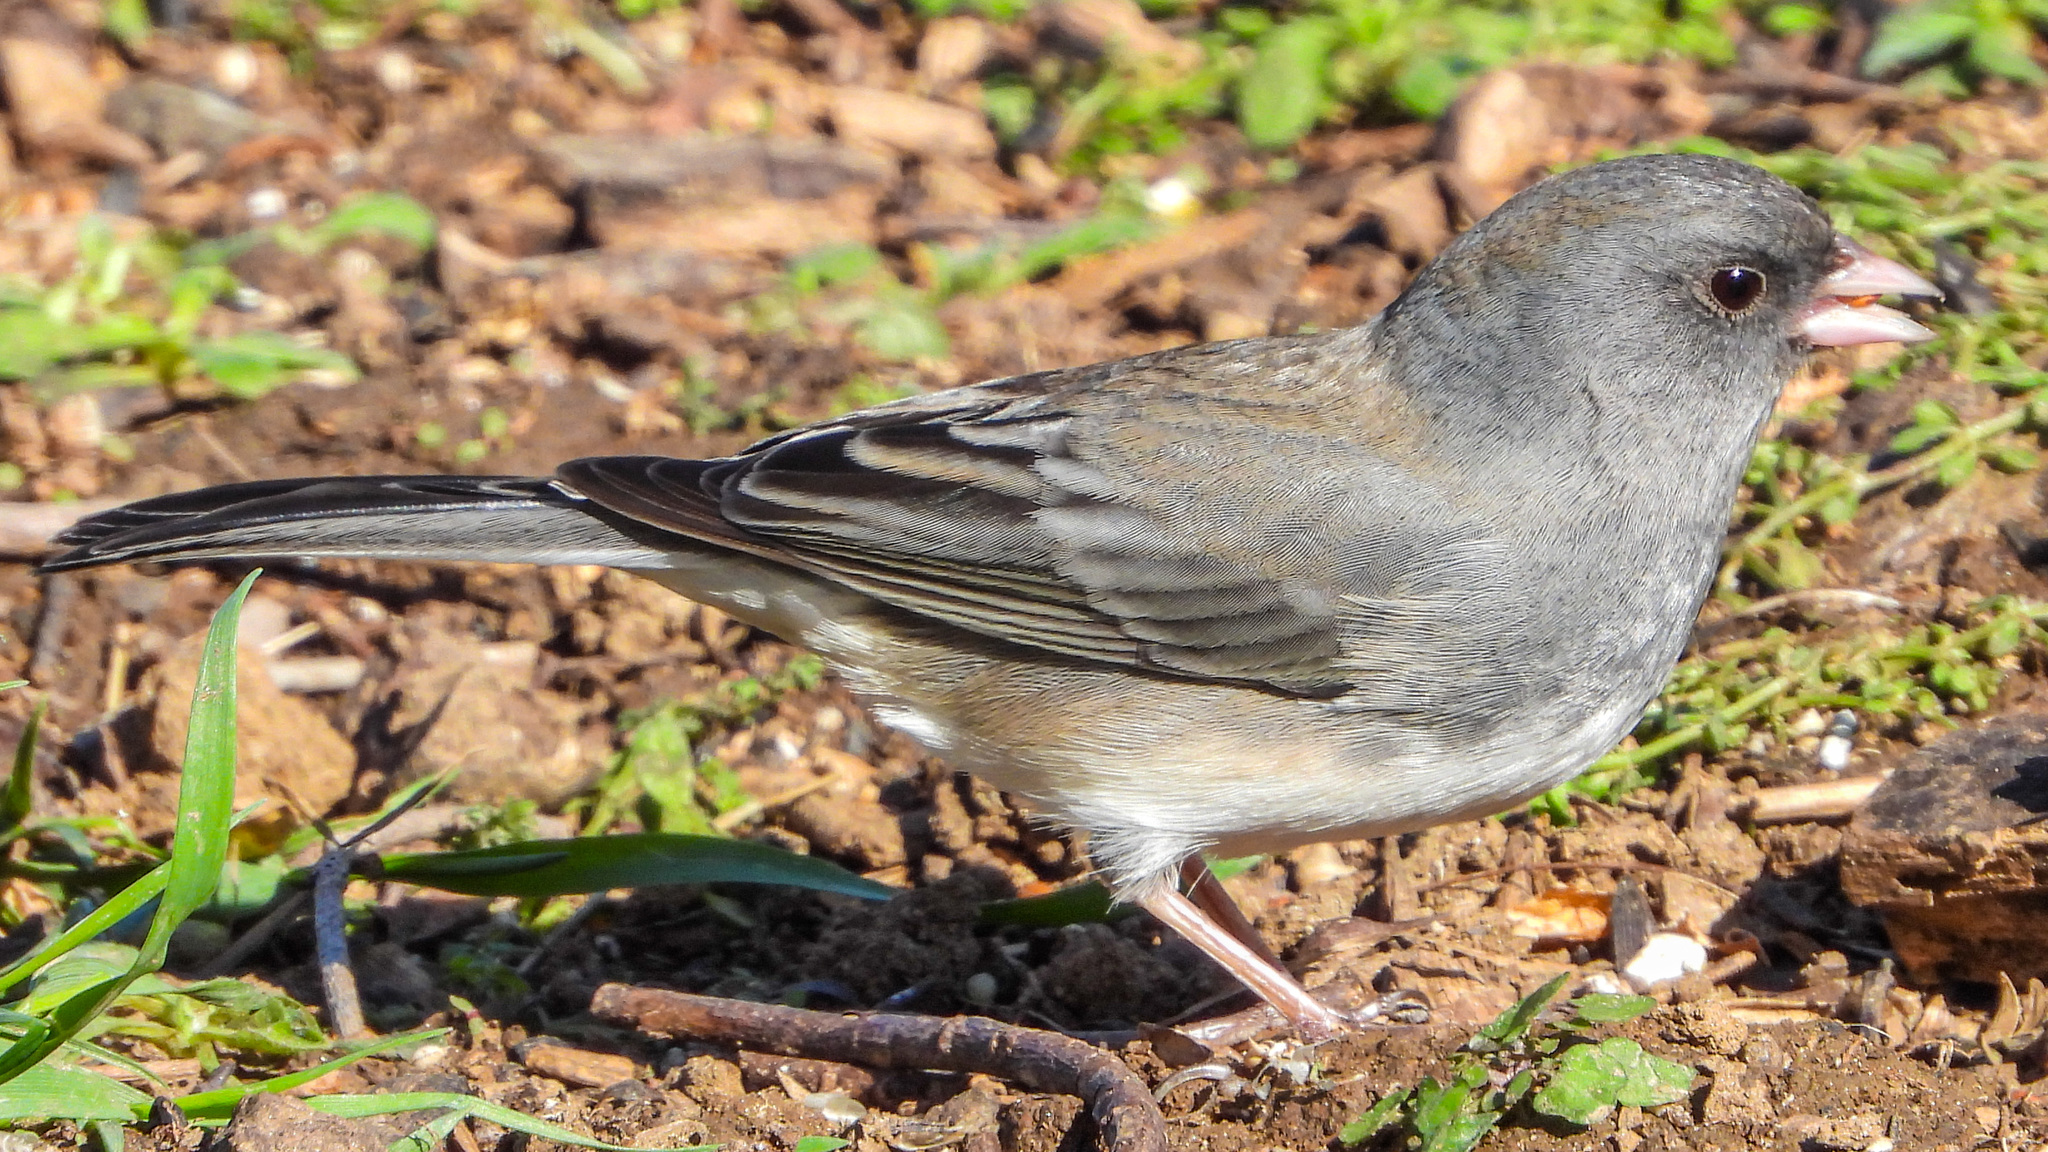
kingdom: Animalia
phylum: Chordata
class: Aves
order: Passeriformes
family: Passerellidae
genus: Junco
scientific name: Junco hyemalis
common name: Dark-eyed junco
